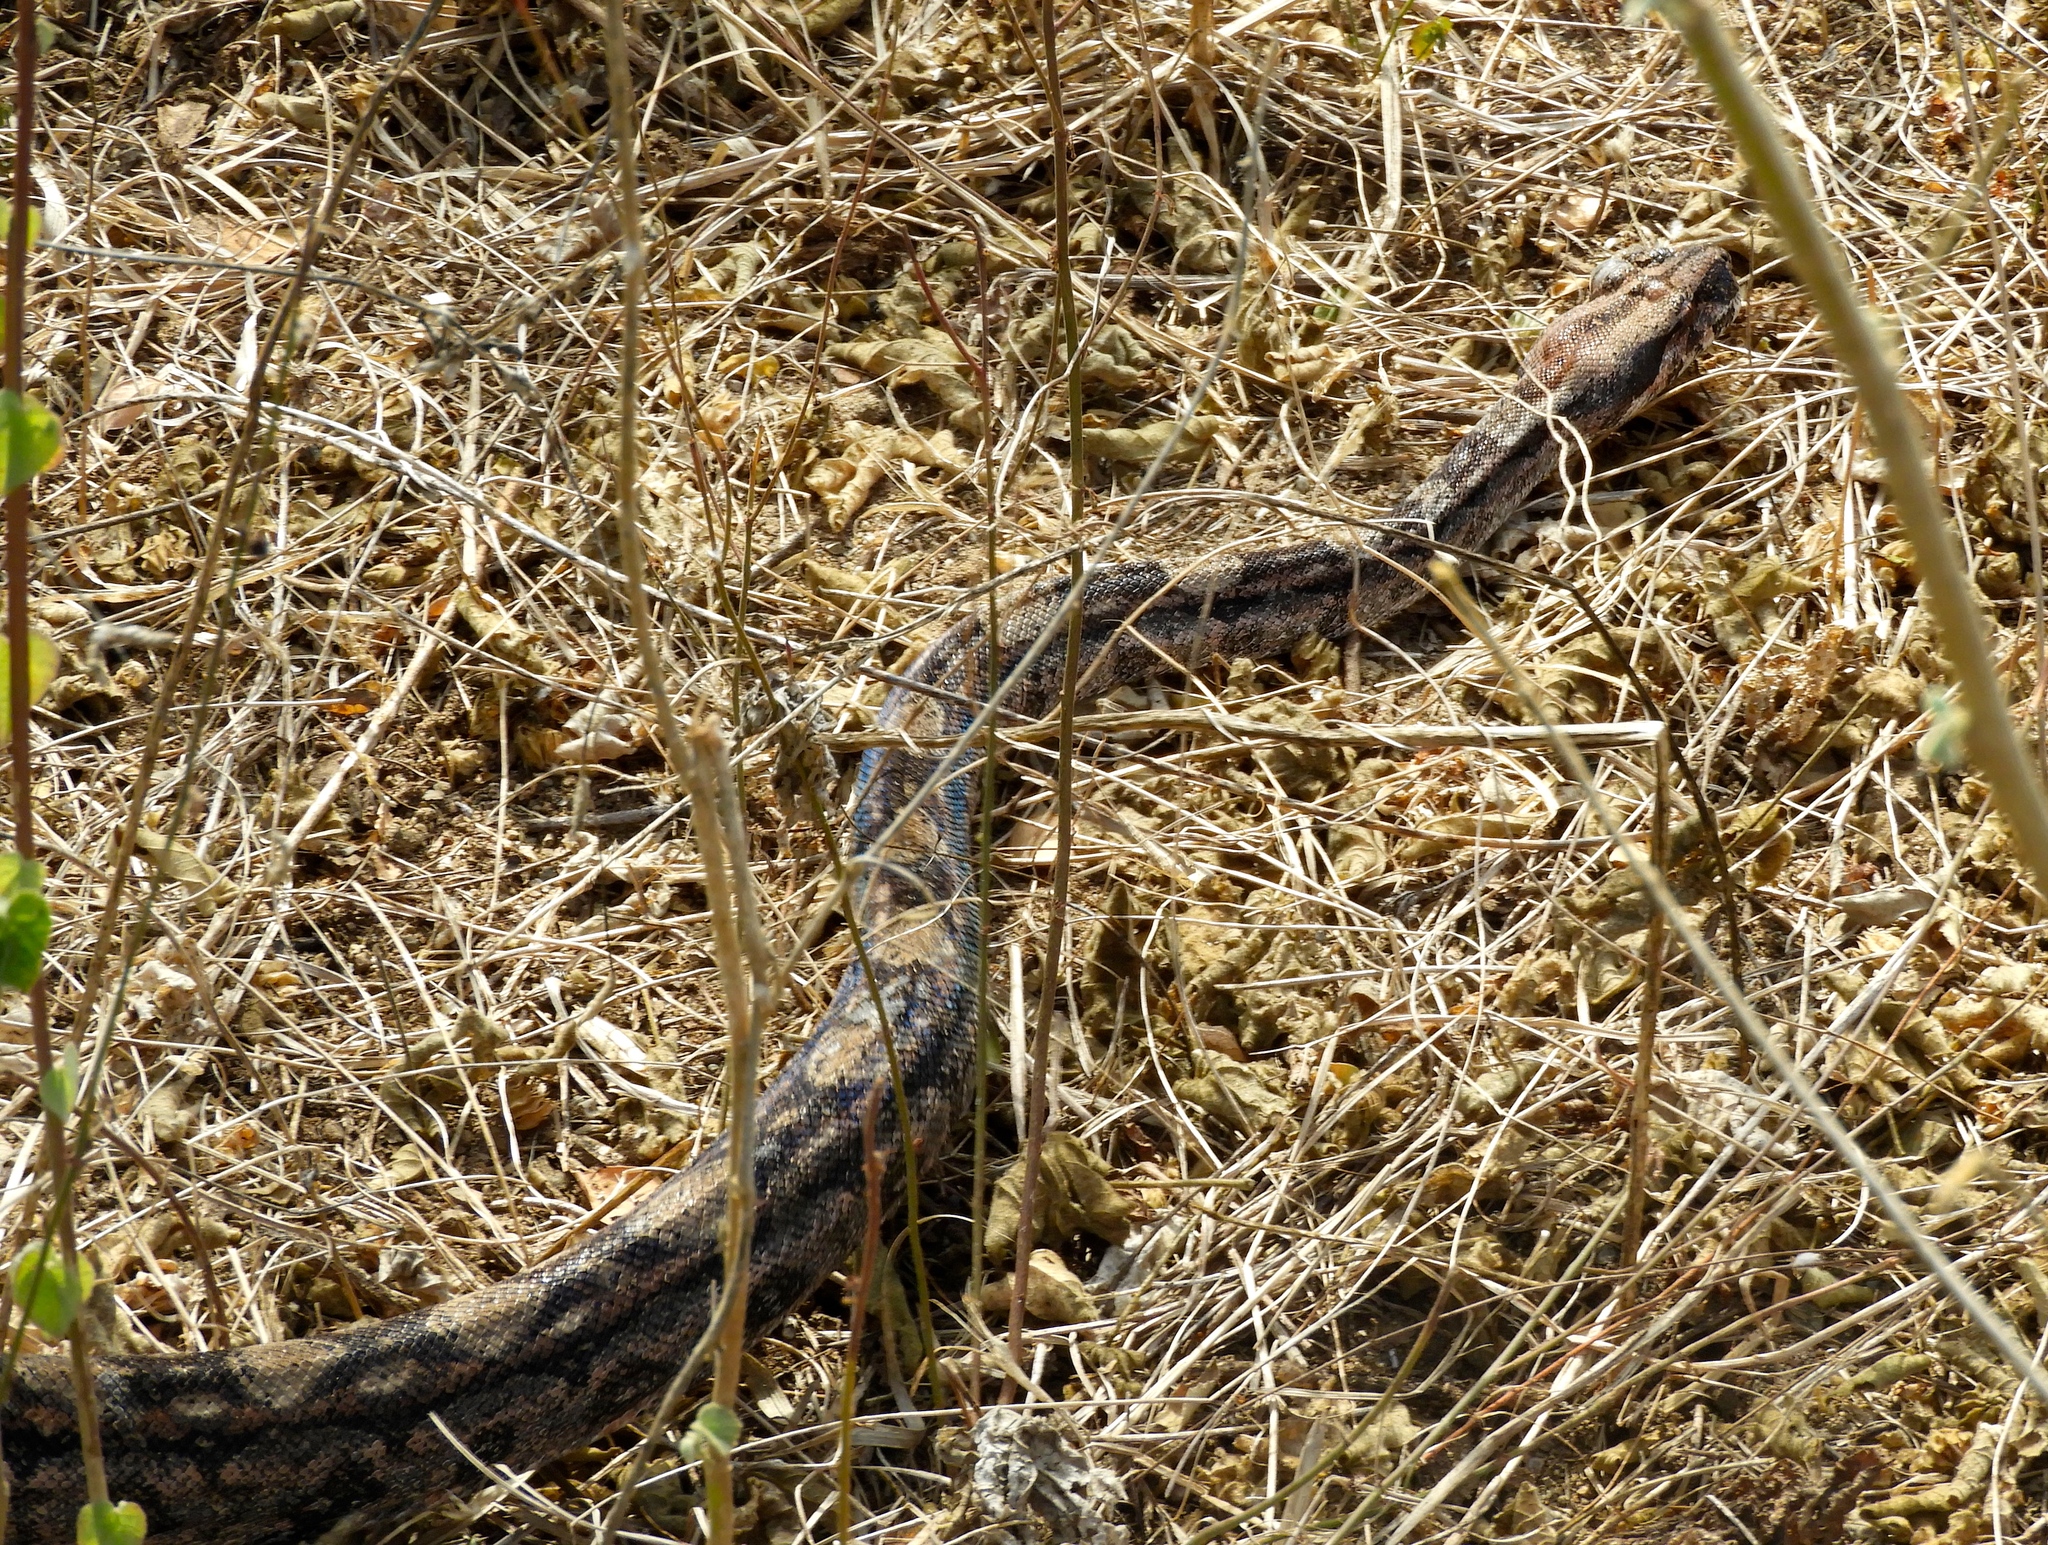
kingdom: Animalia
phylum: Chordata
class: Squamata
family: Boidae
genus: Boa
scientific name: Boa
